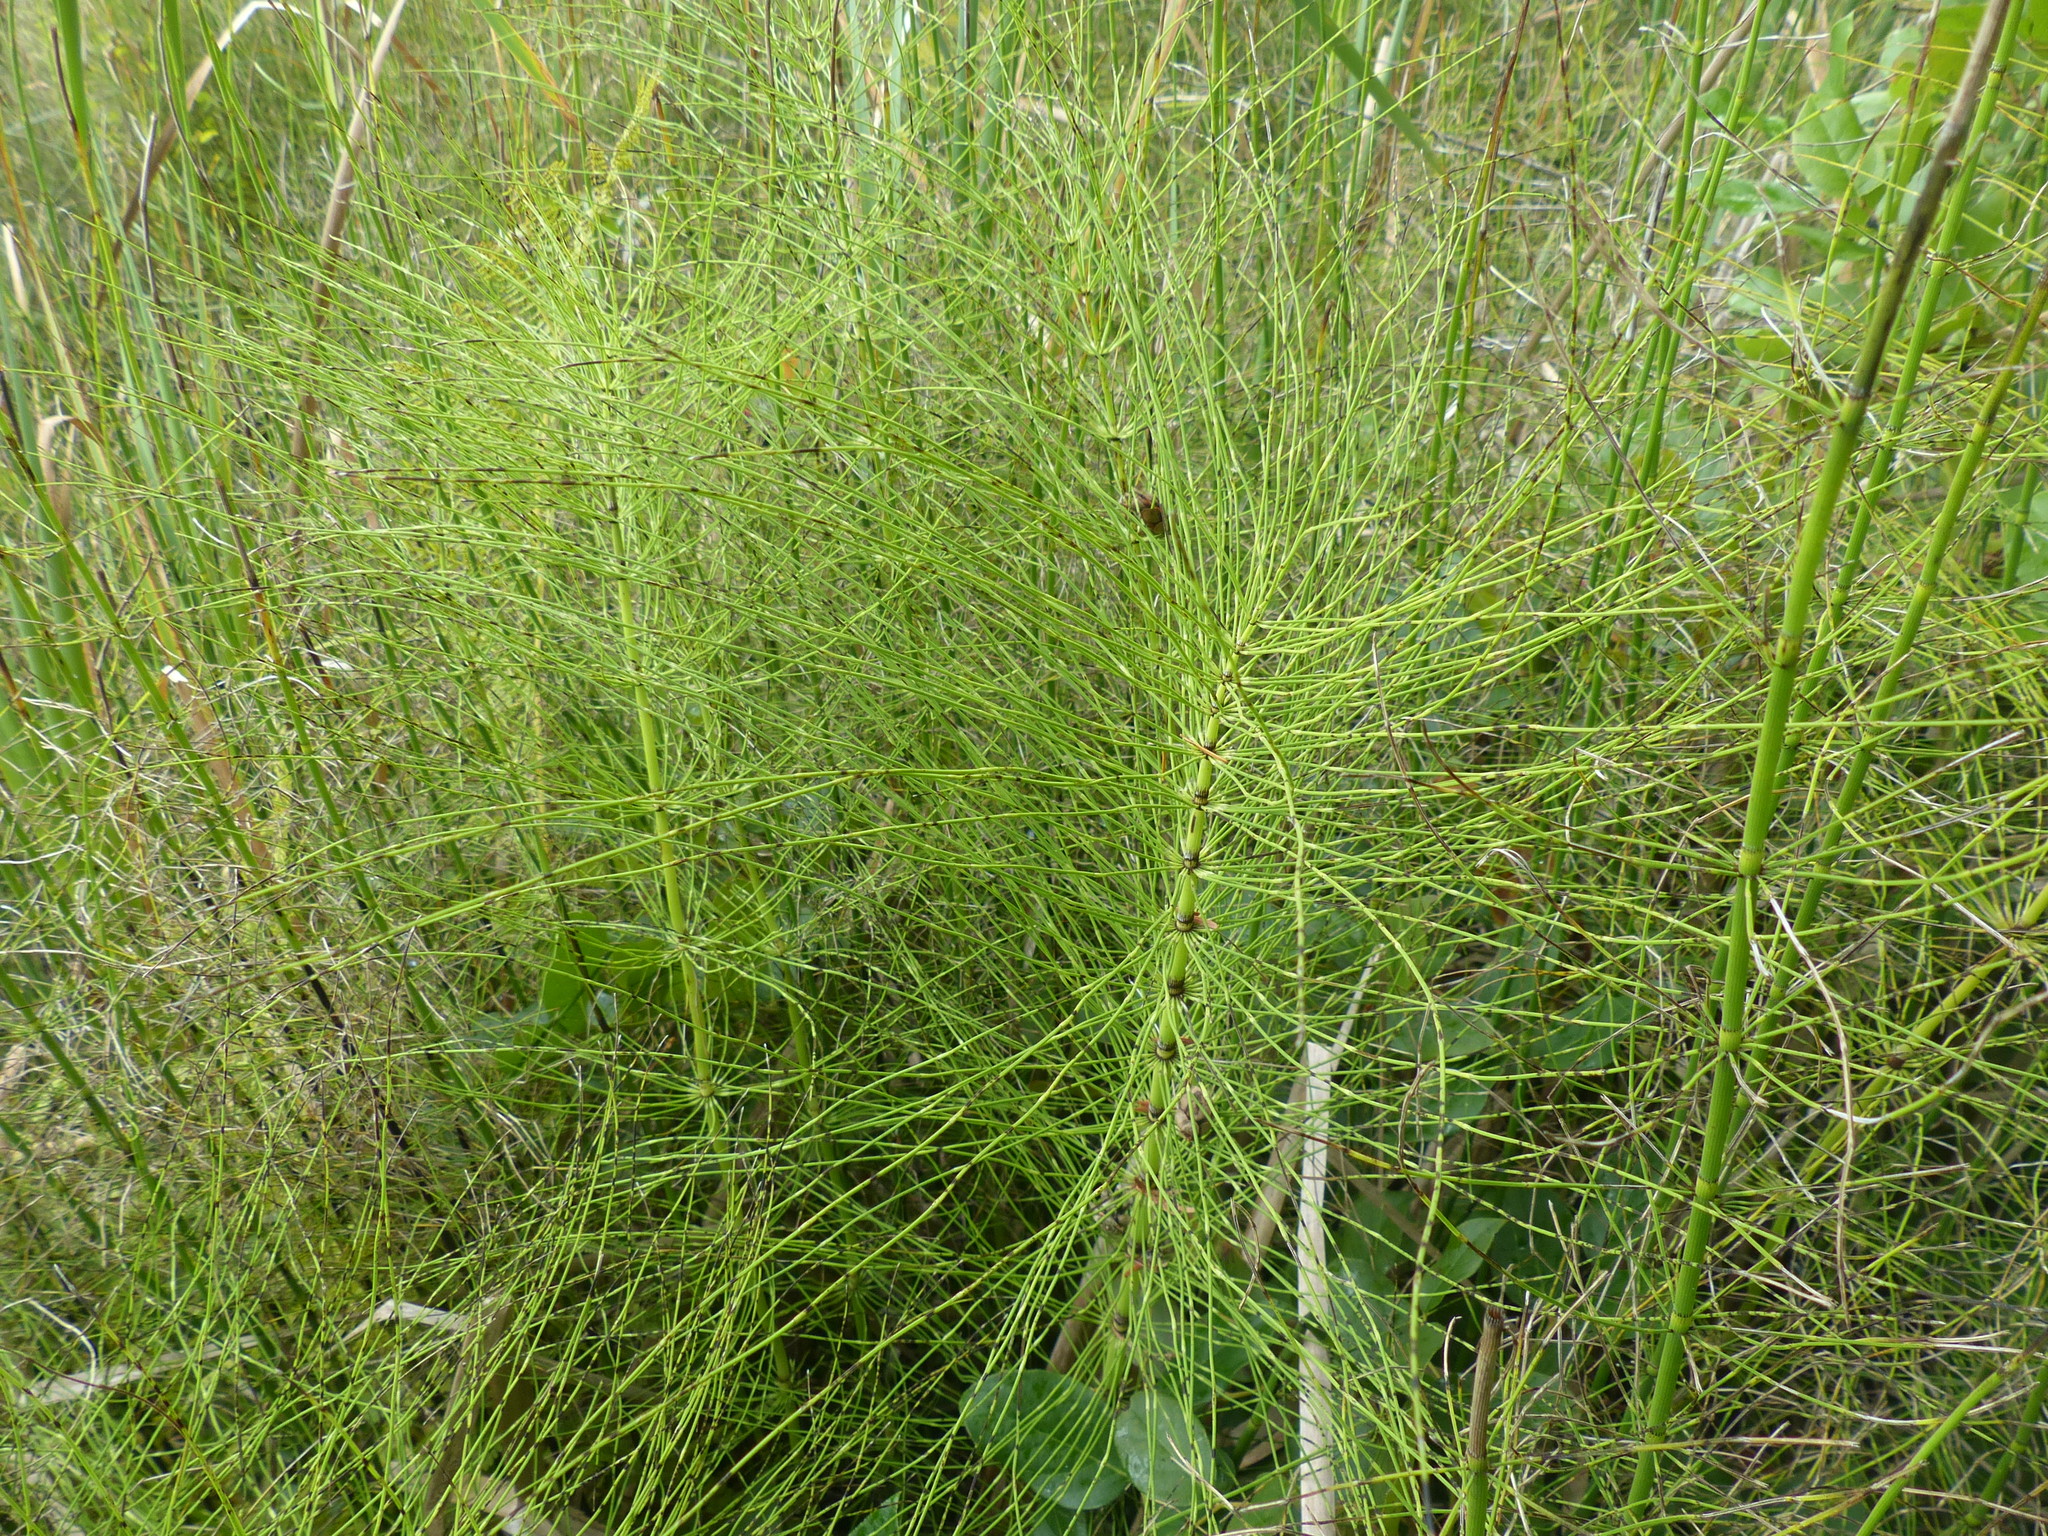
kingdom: Plantae
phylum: Tracheophyta
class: Polypodiopsida
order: Equisetales
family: Equisetaceae
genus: Equisetum
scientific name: Equisetum telmateia
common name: Great horsetail
